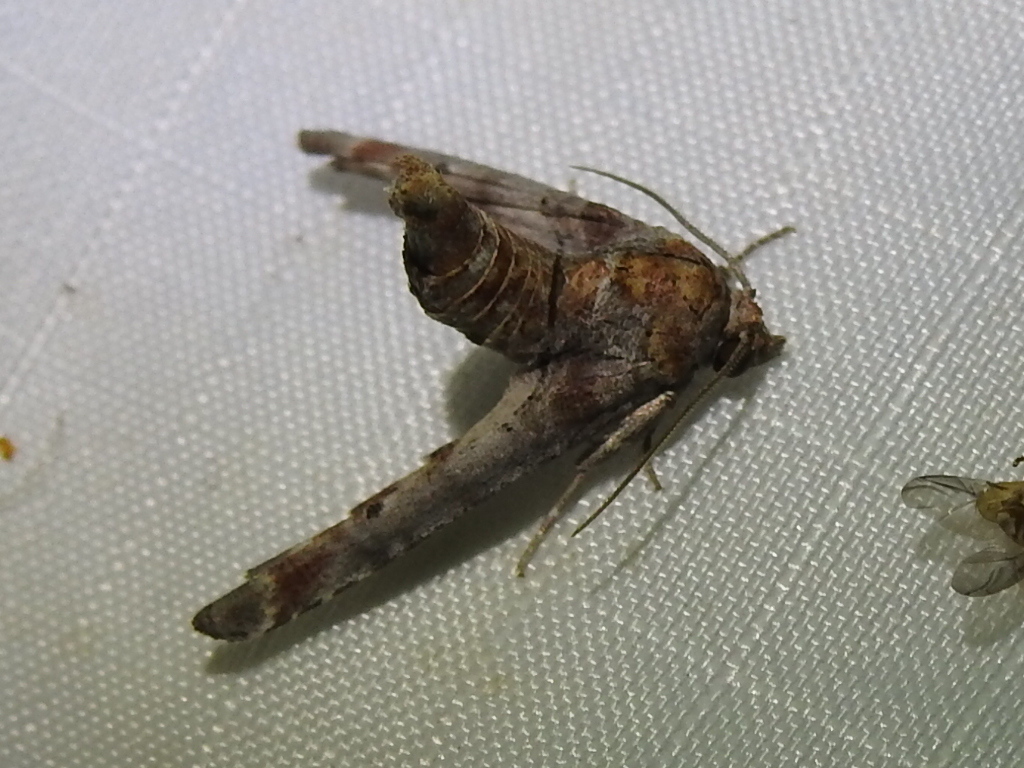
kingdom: Animalia
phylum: Arthropoda
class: Insecta
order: Lepidoptera
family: Euteliidae
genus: Marathyssa
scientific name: Marathyssa inficita
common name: Dark marathyssa moth
